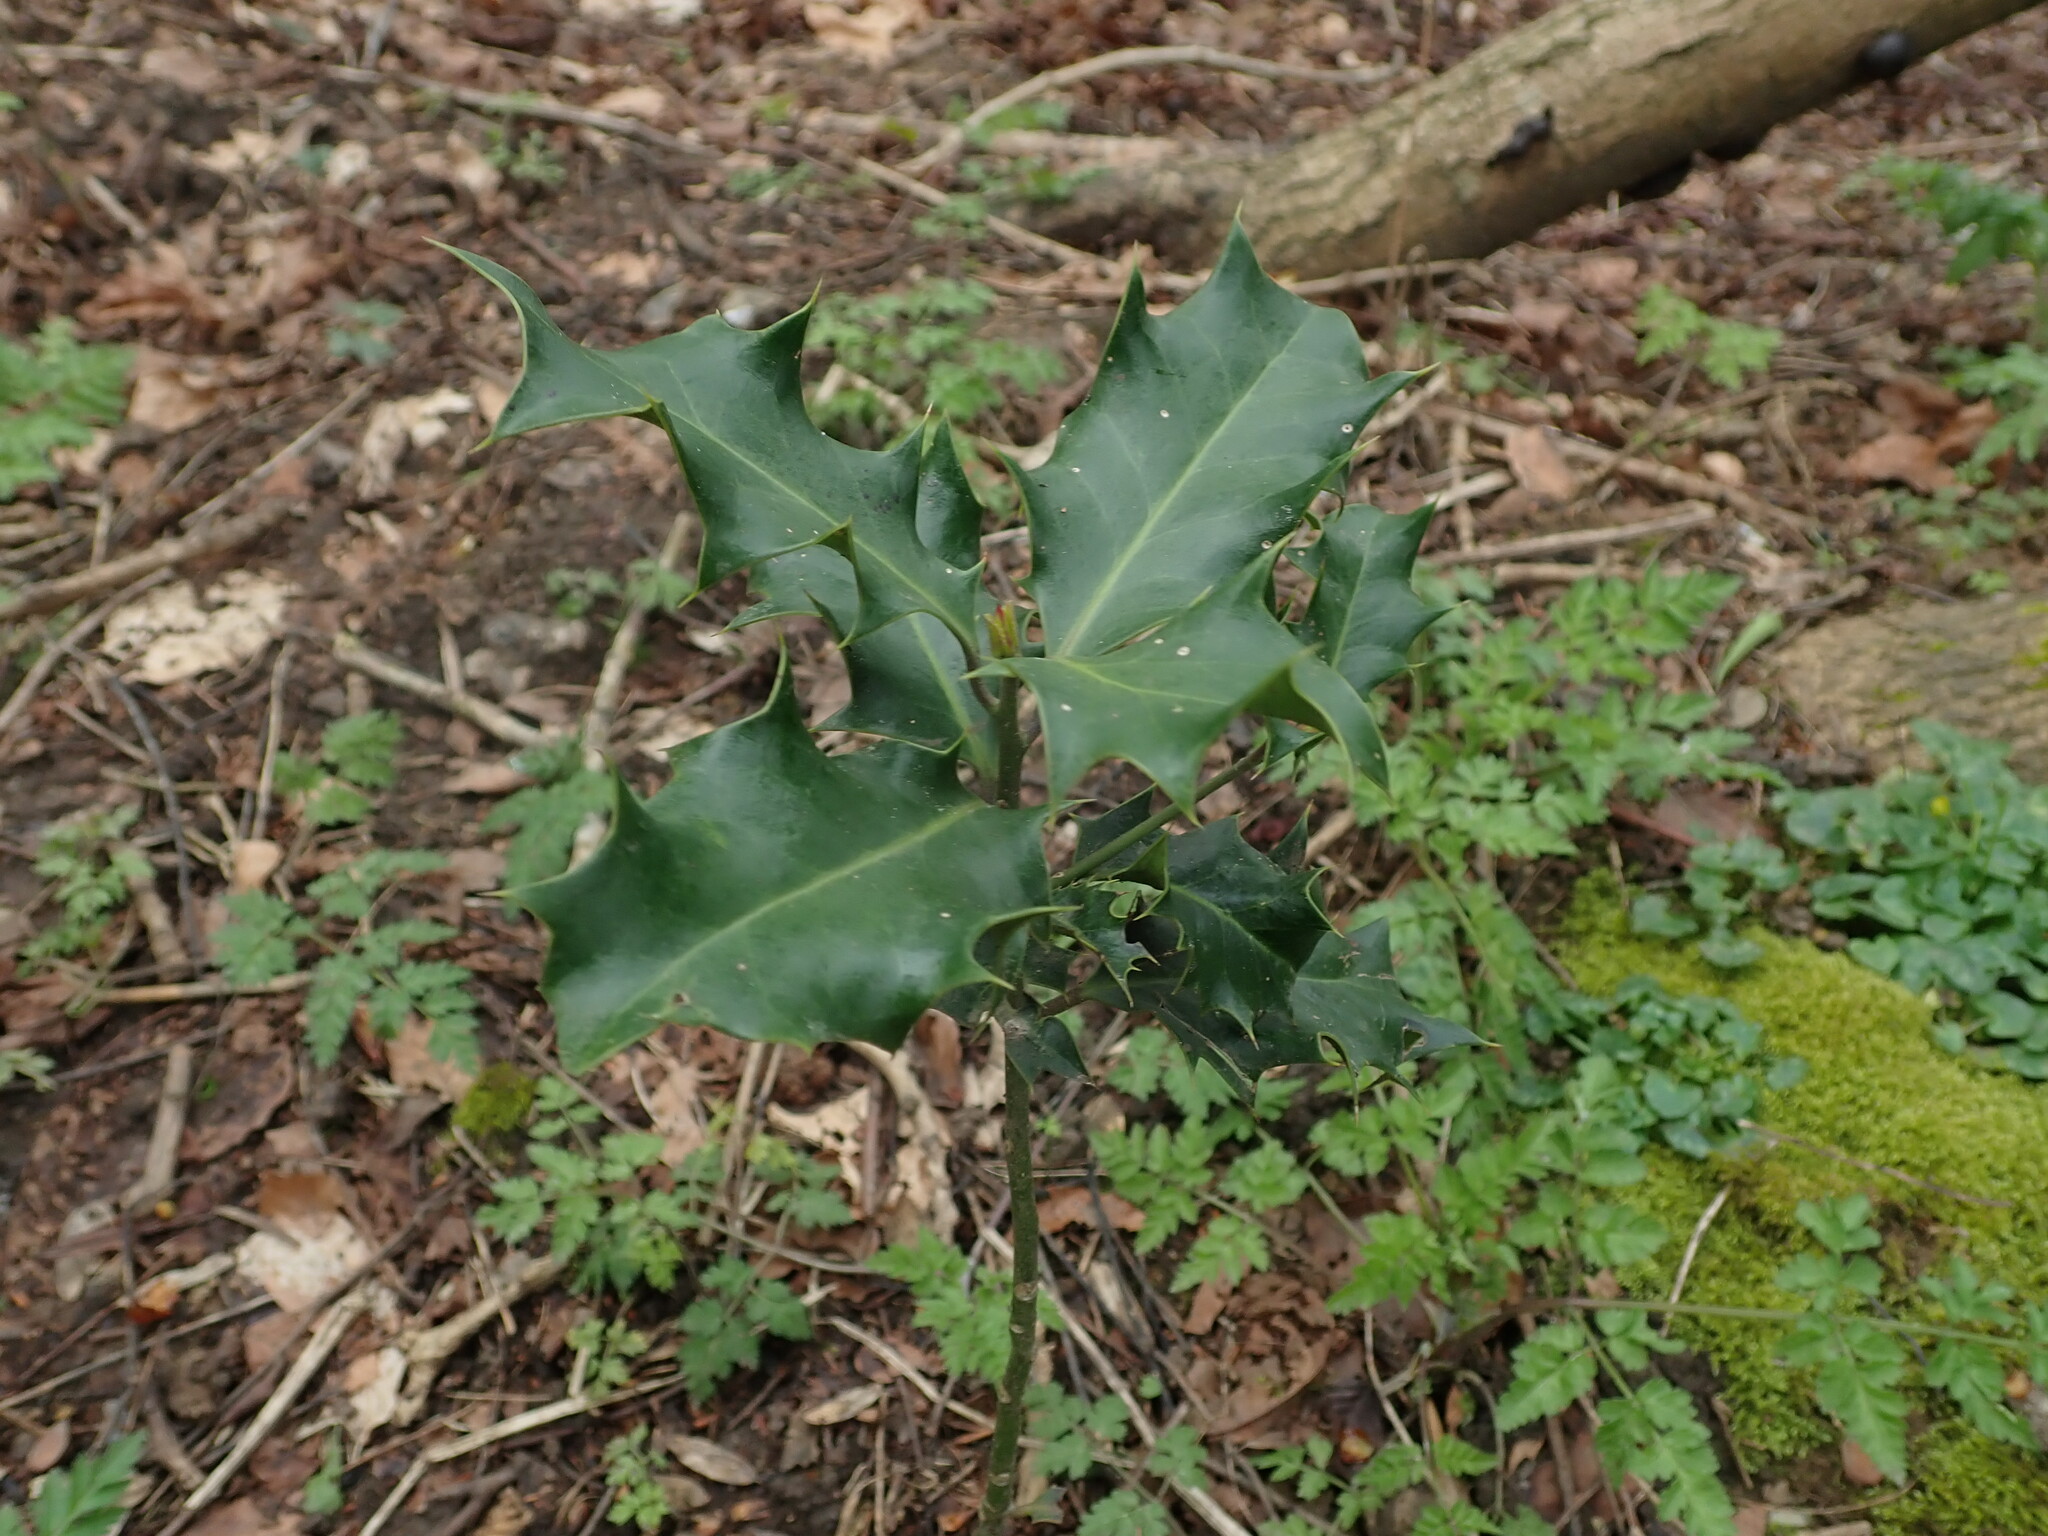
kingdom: Plantae
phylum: Tracheophyta
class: Magnoliopsida
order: Aquifoliales
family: Aquifoliaceae
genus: Ilex
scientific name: Ilex aquifolium
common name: English holly
